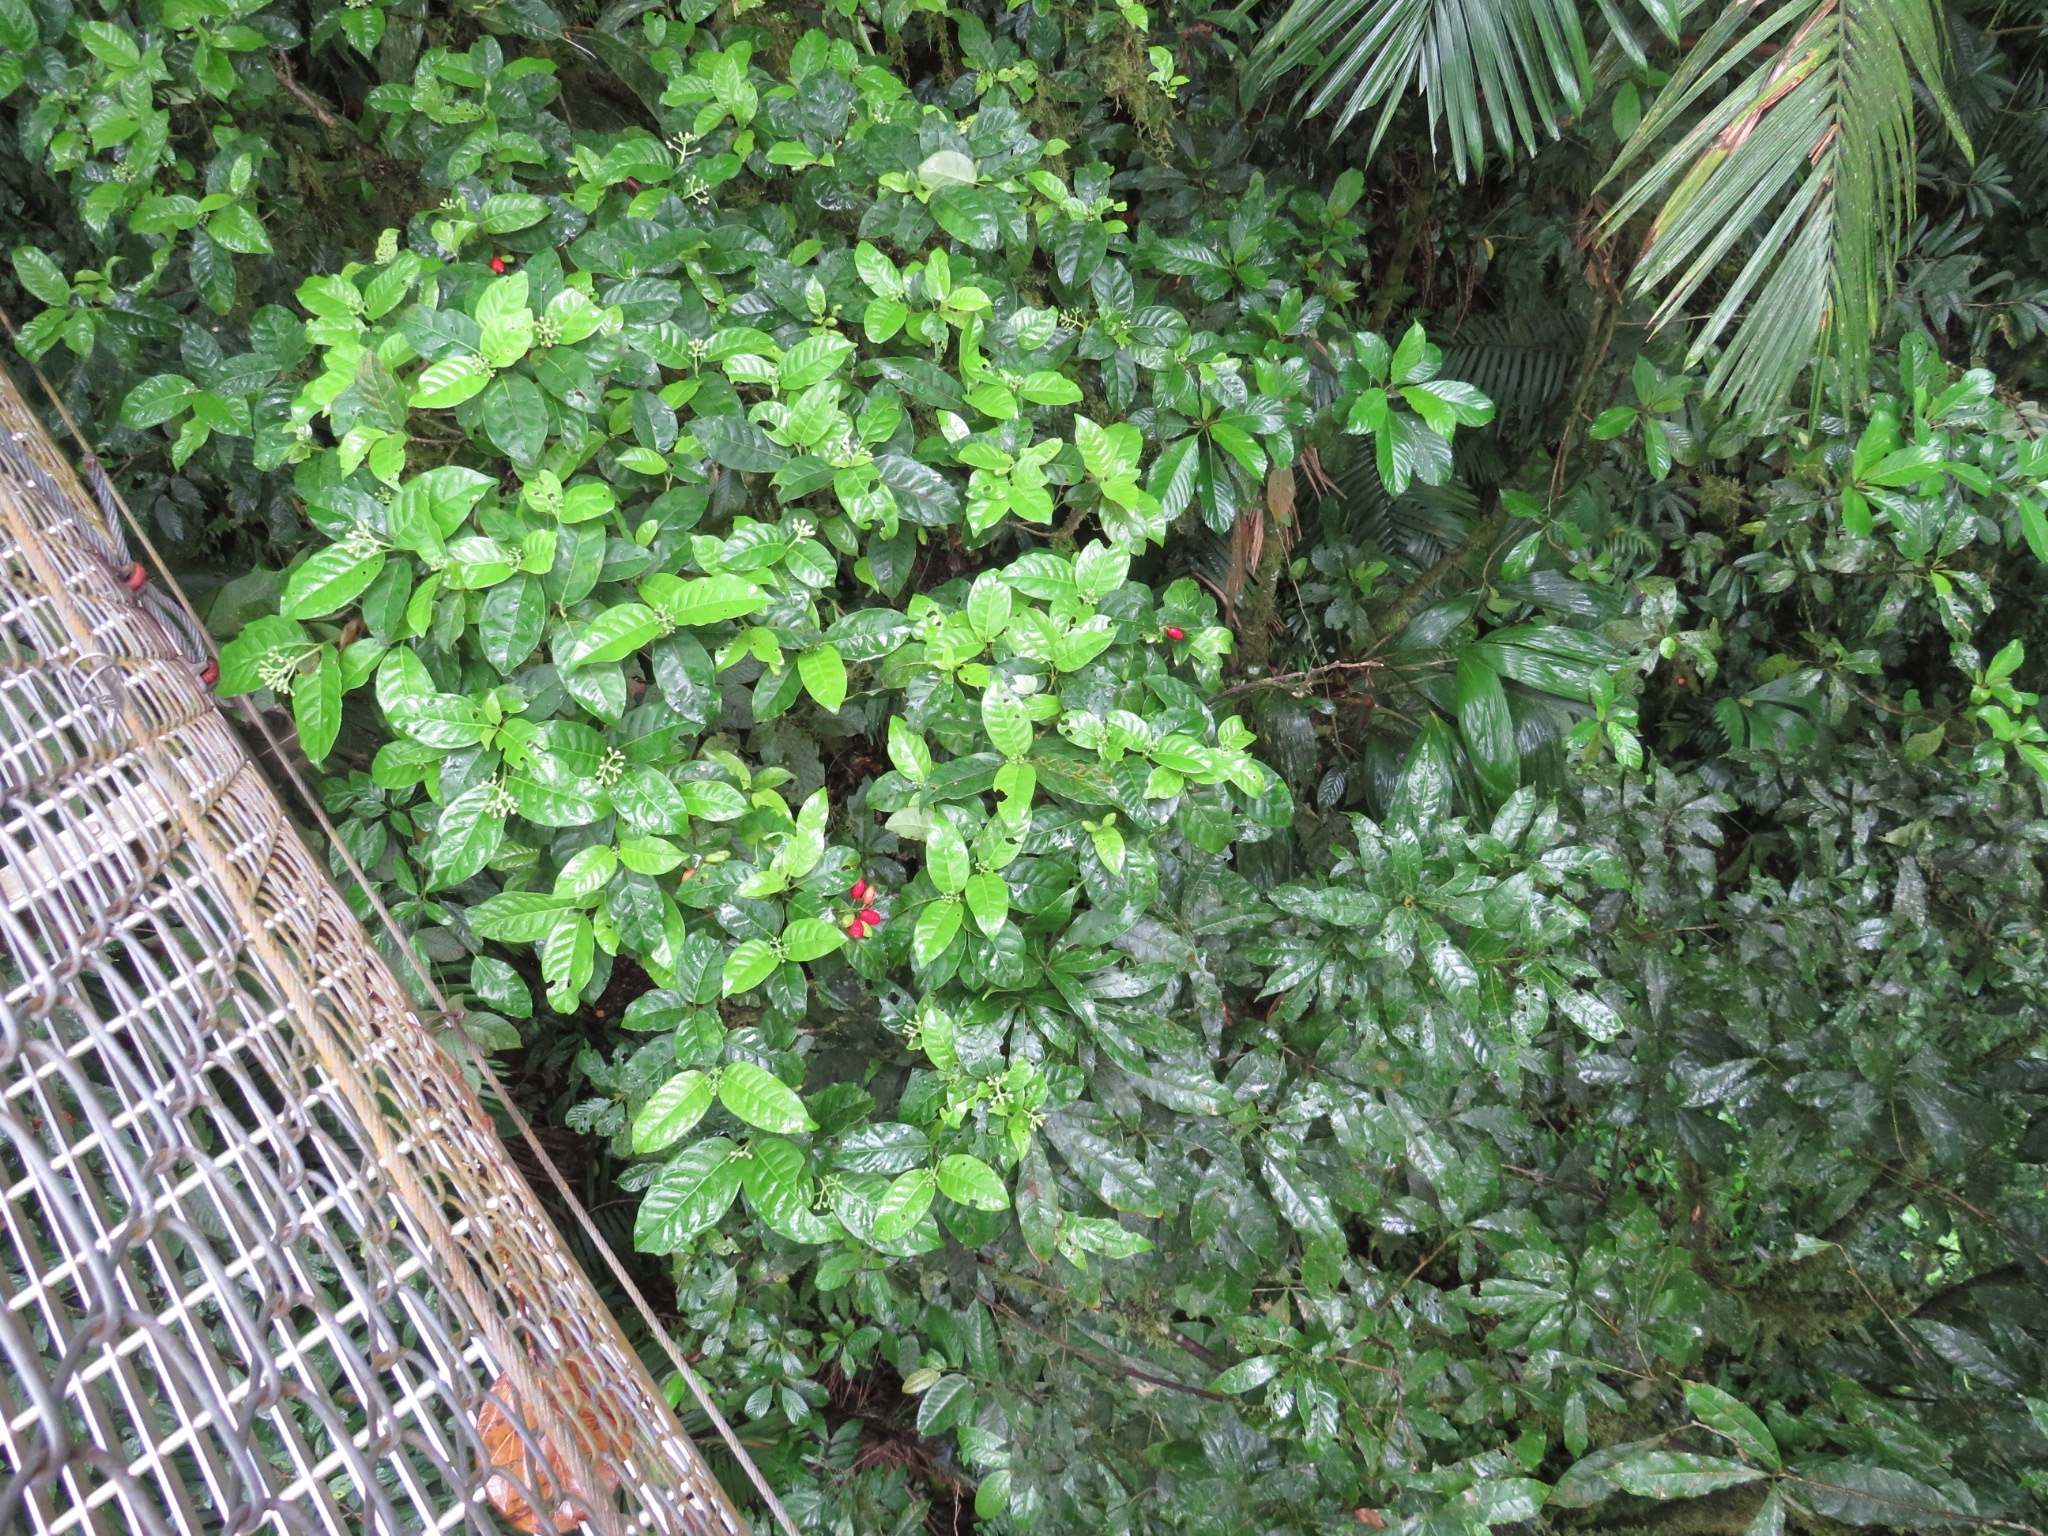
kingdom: Plantae
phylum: Tracheophyta
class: Magnoliopsida
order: Gentianales
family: Rubiaceae
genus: Chione
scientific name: Chione venosa
